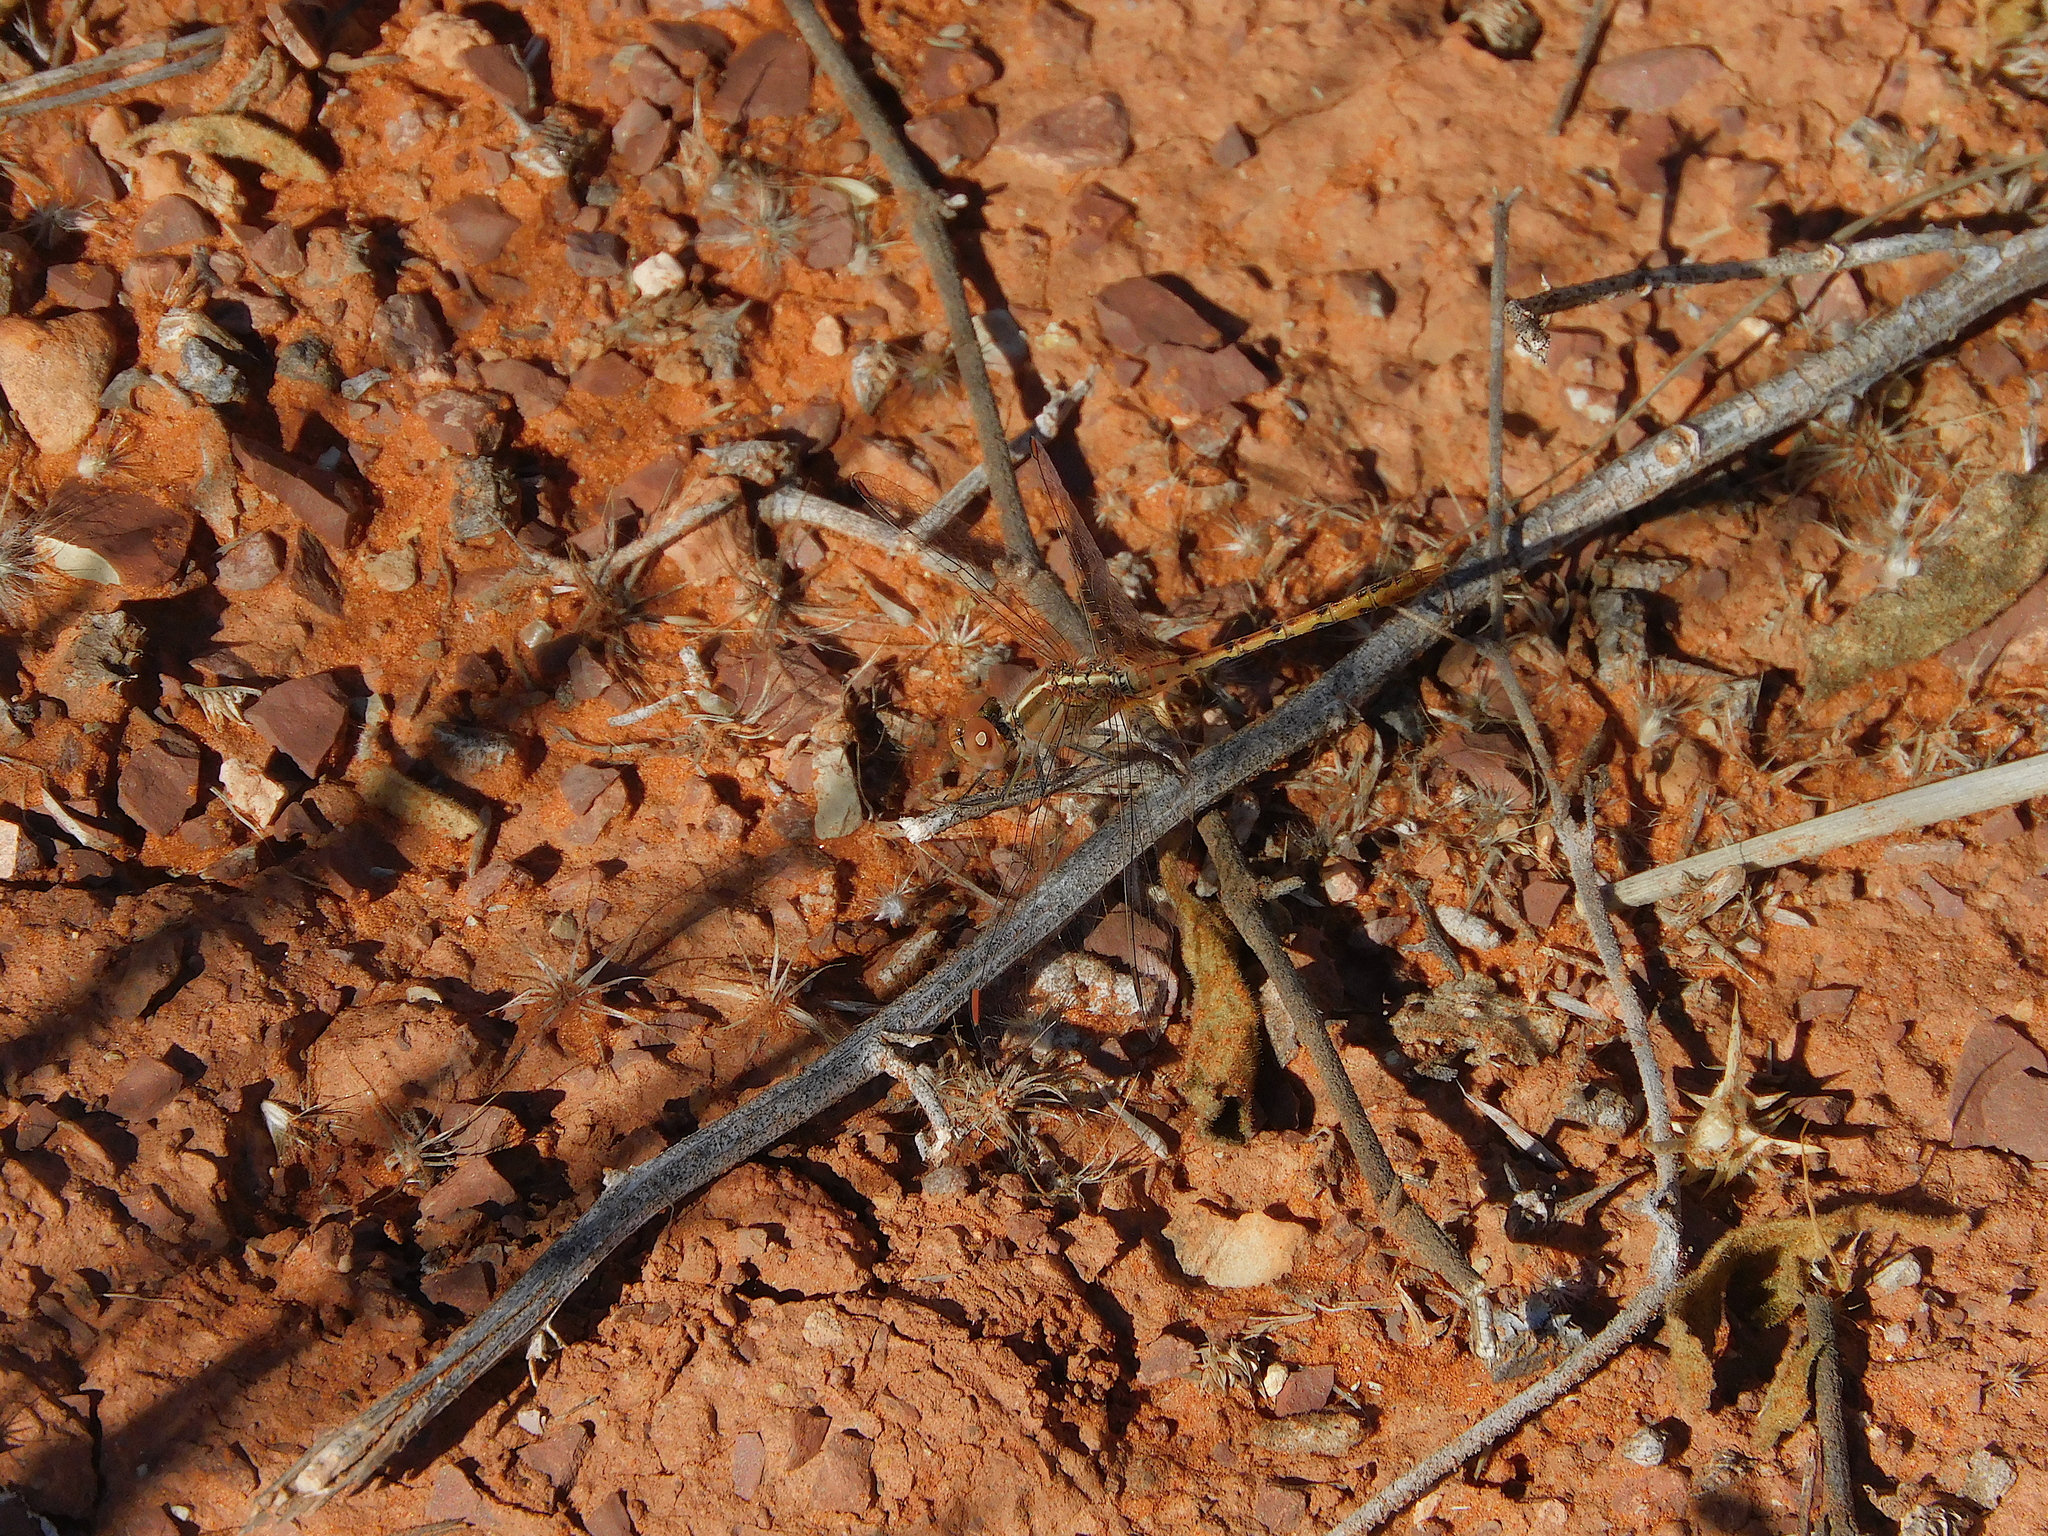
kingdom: Animalia
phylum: Arthropoda
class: Insecta
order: Odonata
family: Libellulidae
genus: Diplacodes
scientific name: Diplacodes bipunctata
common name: Red percher dragonfly
